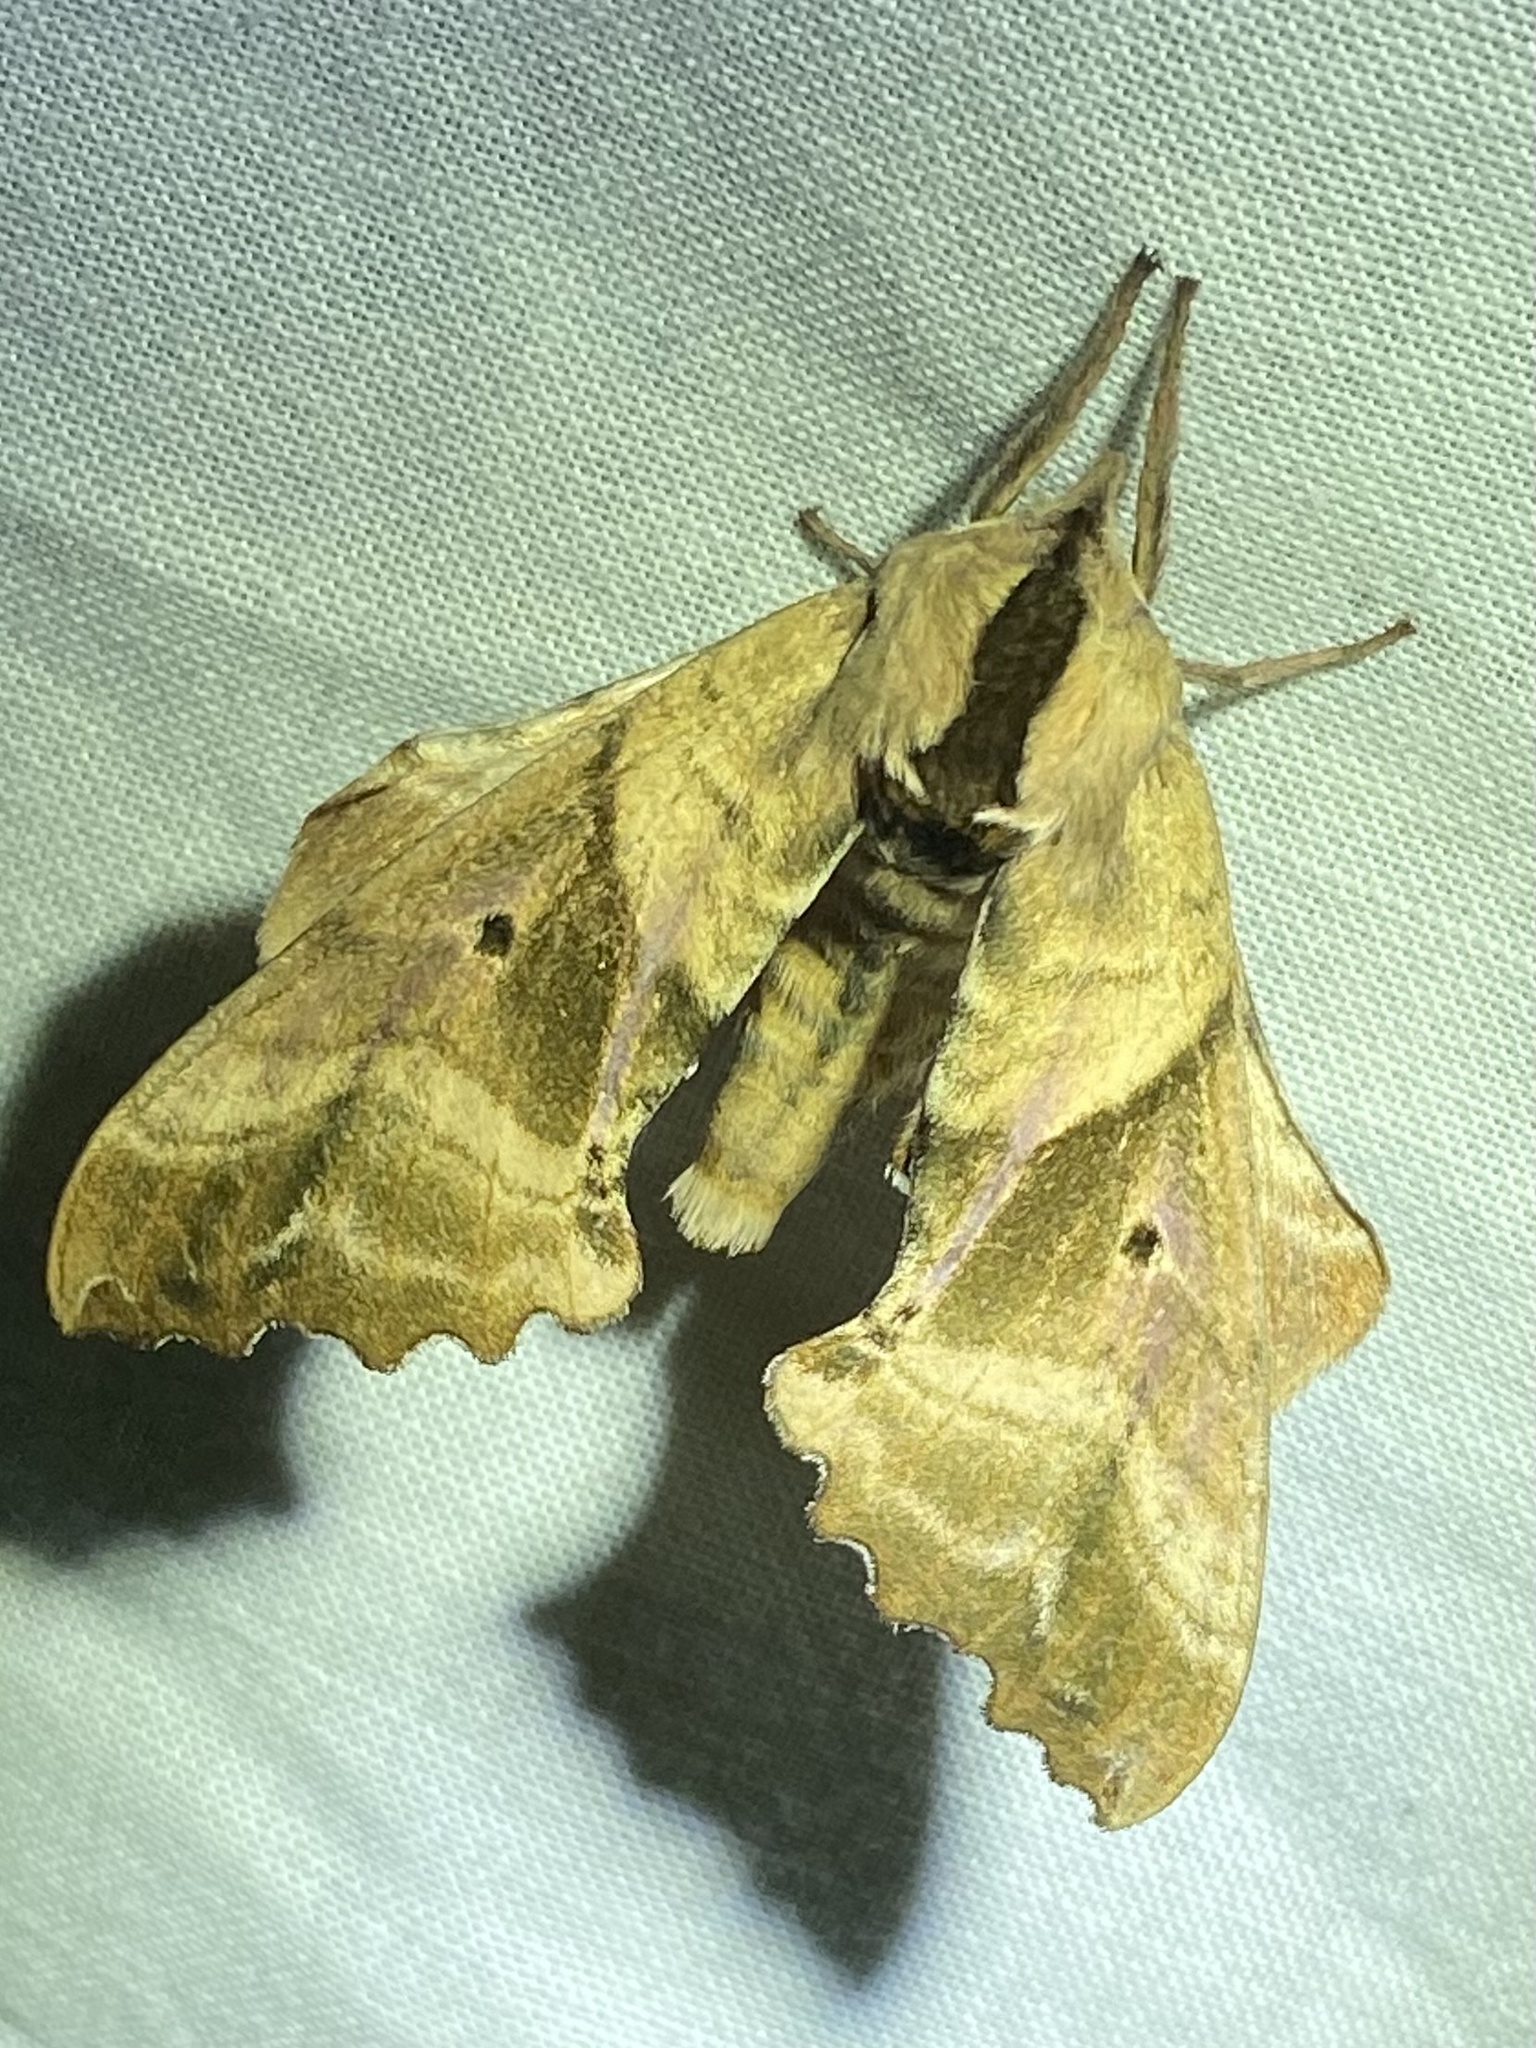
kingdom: Animalia
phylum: Arthropoda
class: Insecta
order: Lepidoptera
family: Sphingidae
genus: Paonias
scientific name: Paonias excaecata
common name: Blind-eyed sphinx
